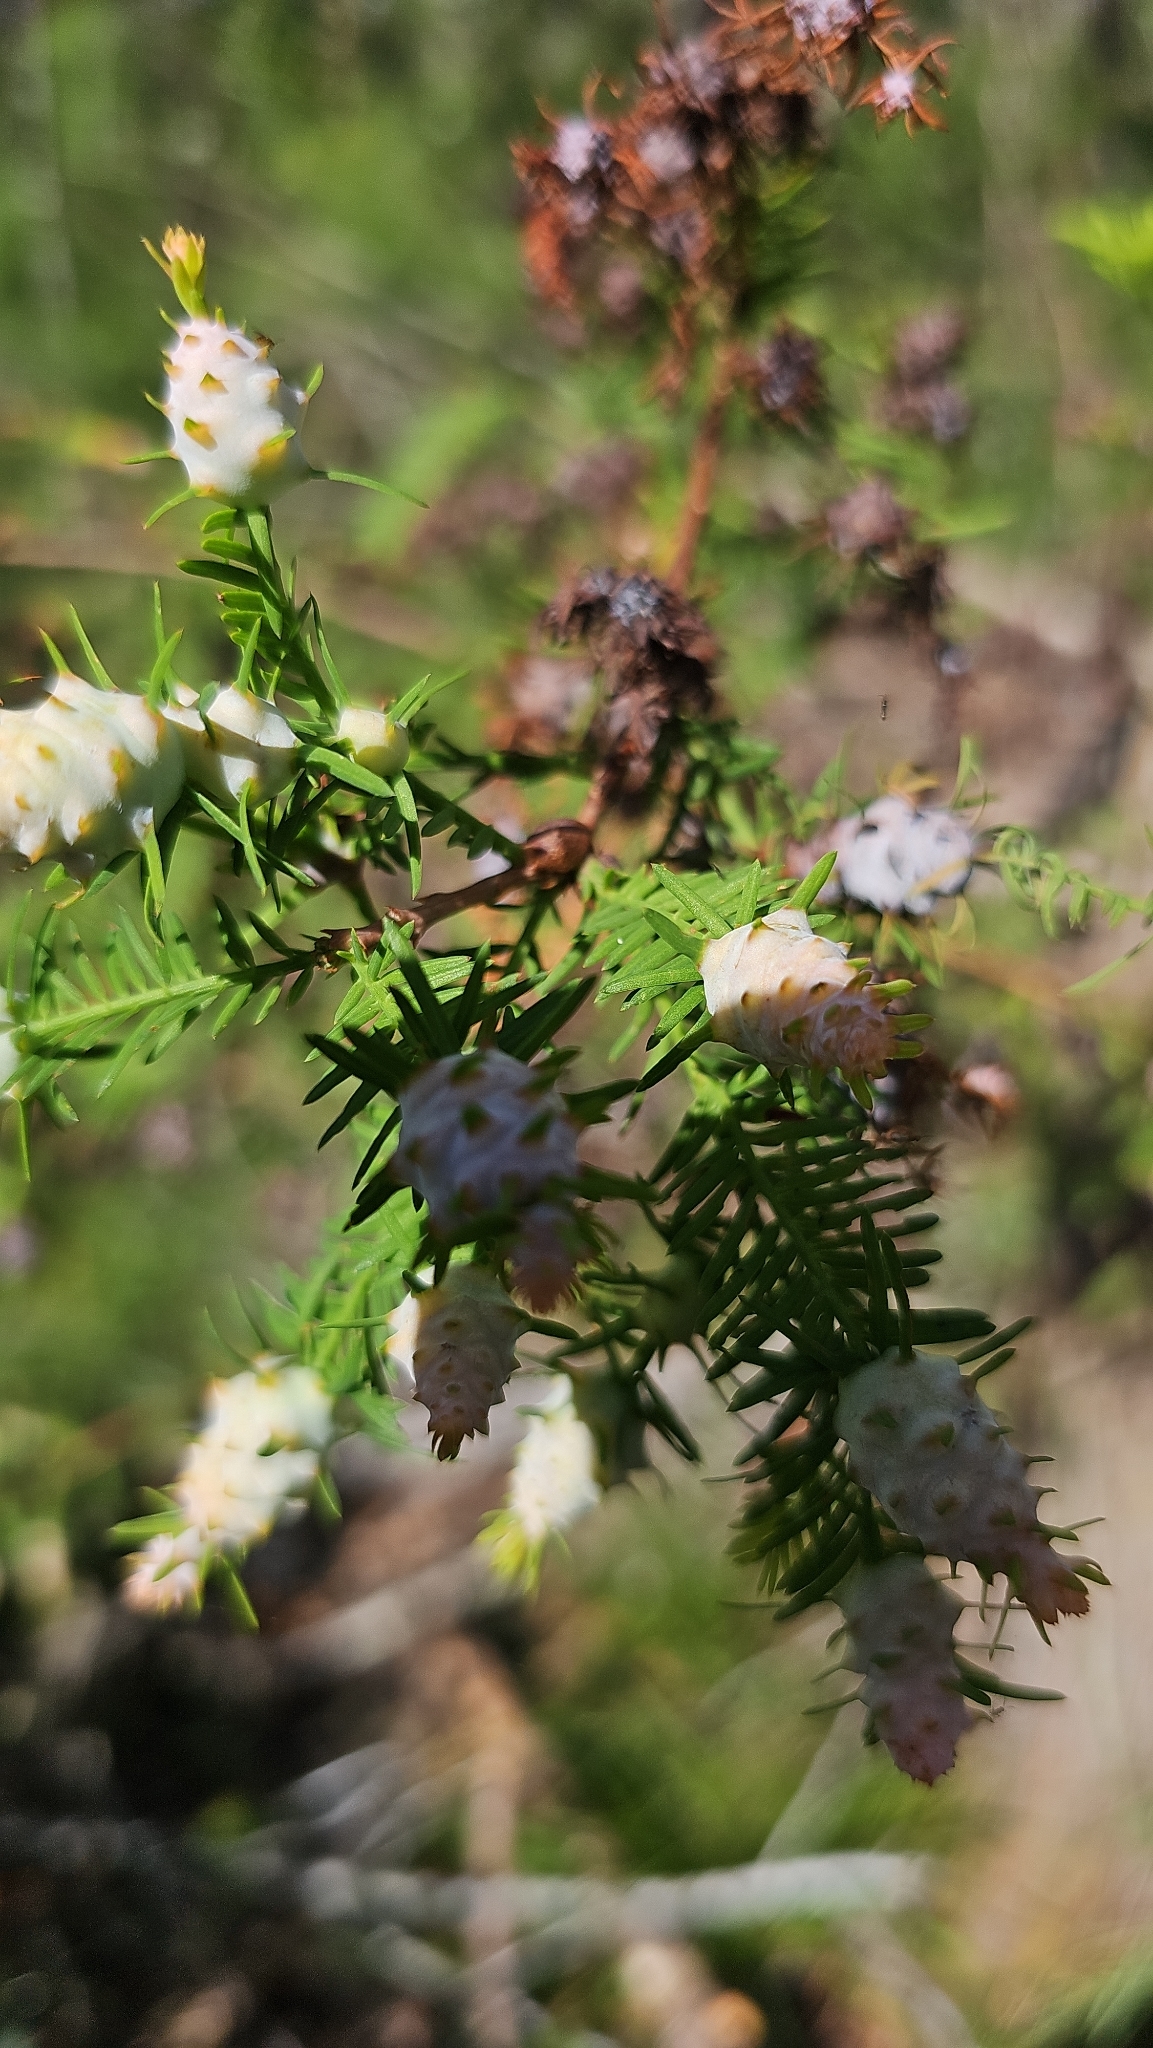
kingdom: Animalia
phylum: Arthropoda
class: Insecta
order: Diptera
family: Cecidomyiidae
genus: Taxodiomyia
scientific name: Taxodiomyia cupressiananassa
